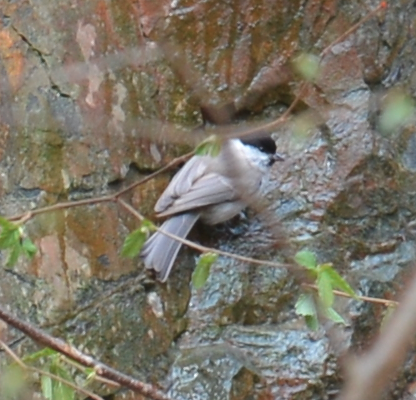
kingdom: Animalia
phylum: Chordata
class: Aves
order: Passeriformes
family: Paridae
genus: Poecile
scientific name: Poecile palustris
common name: Marsh tit
